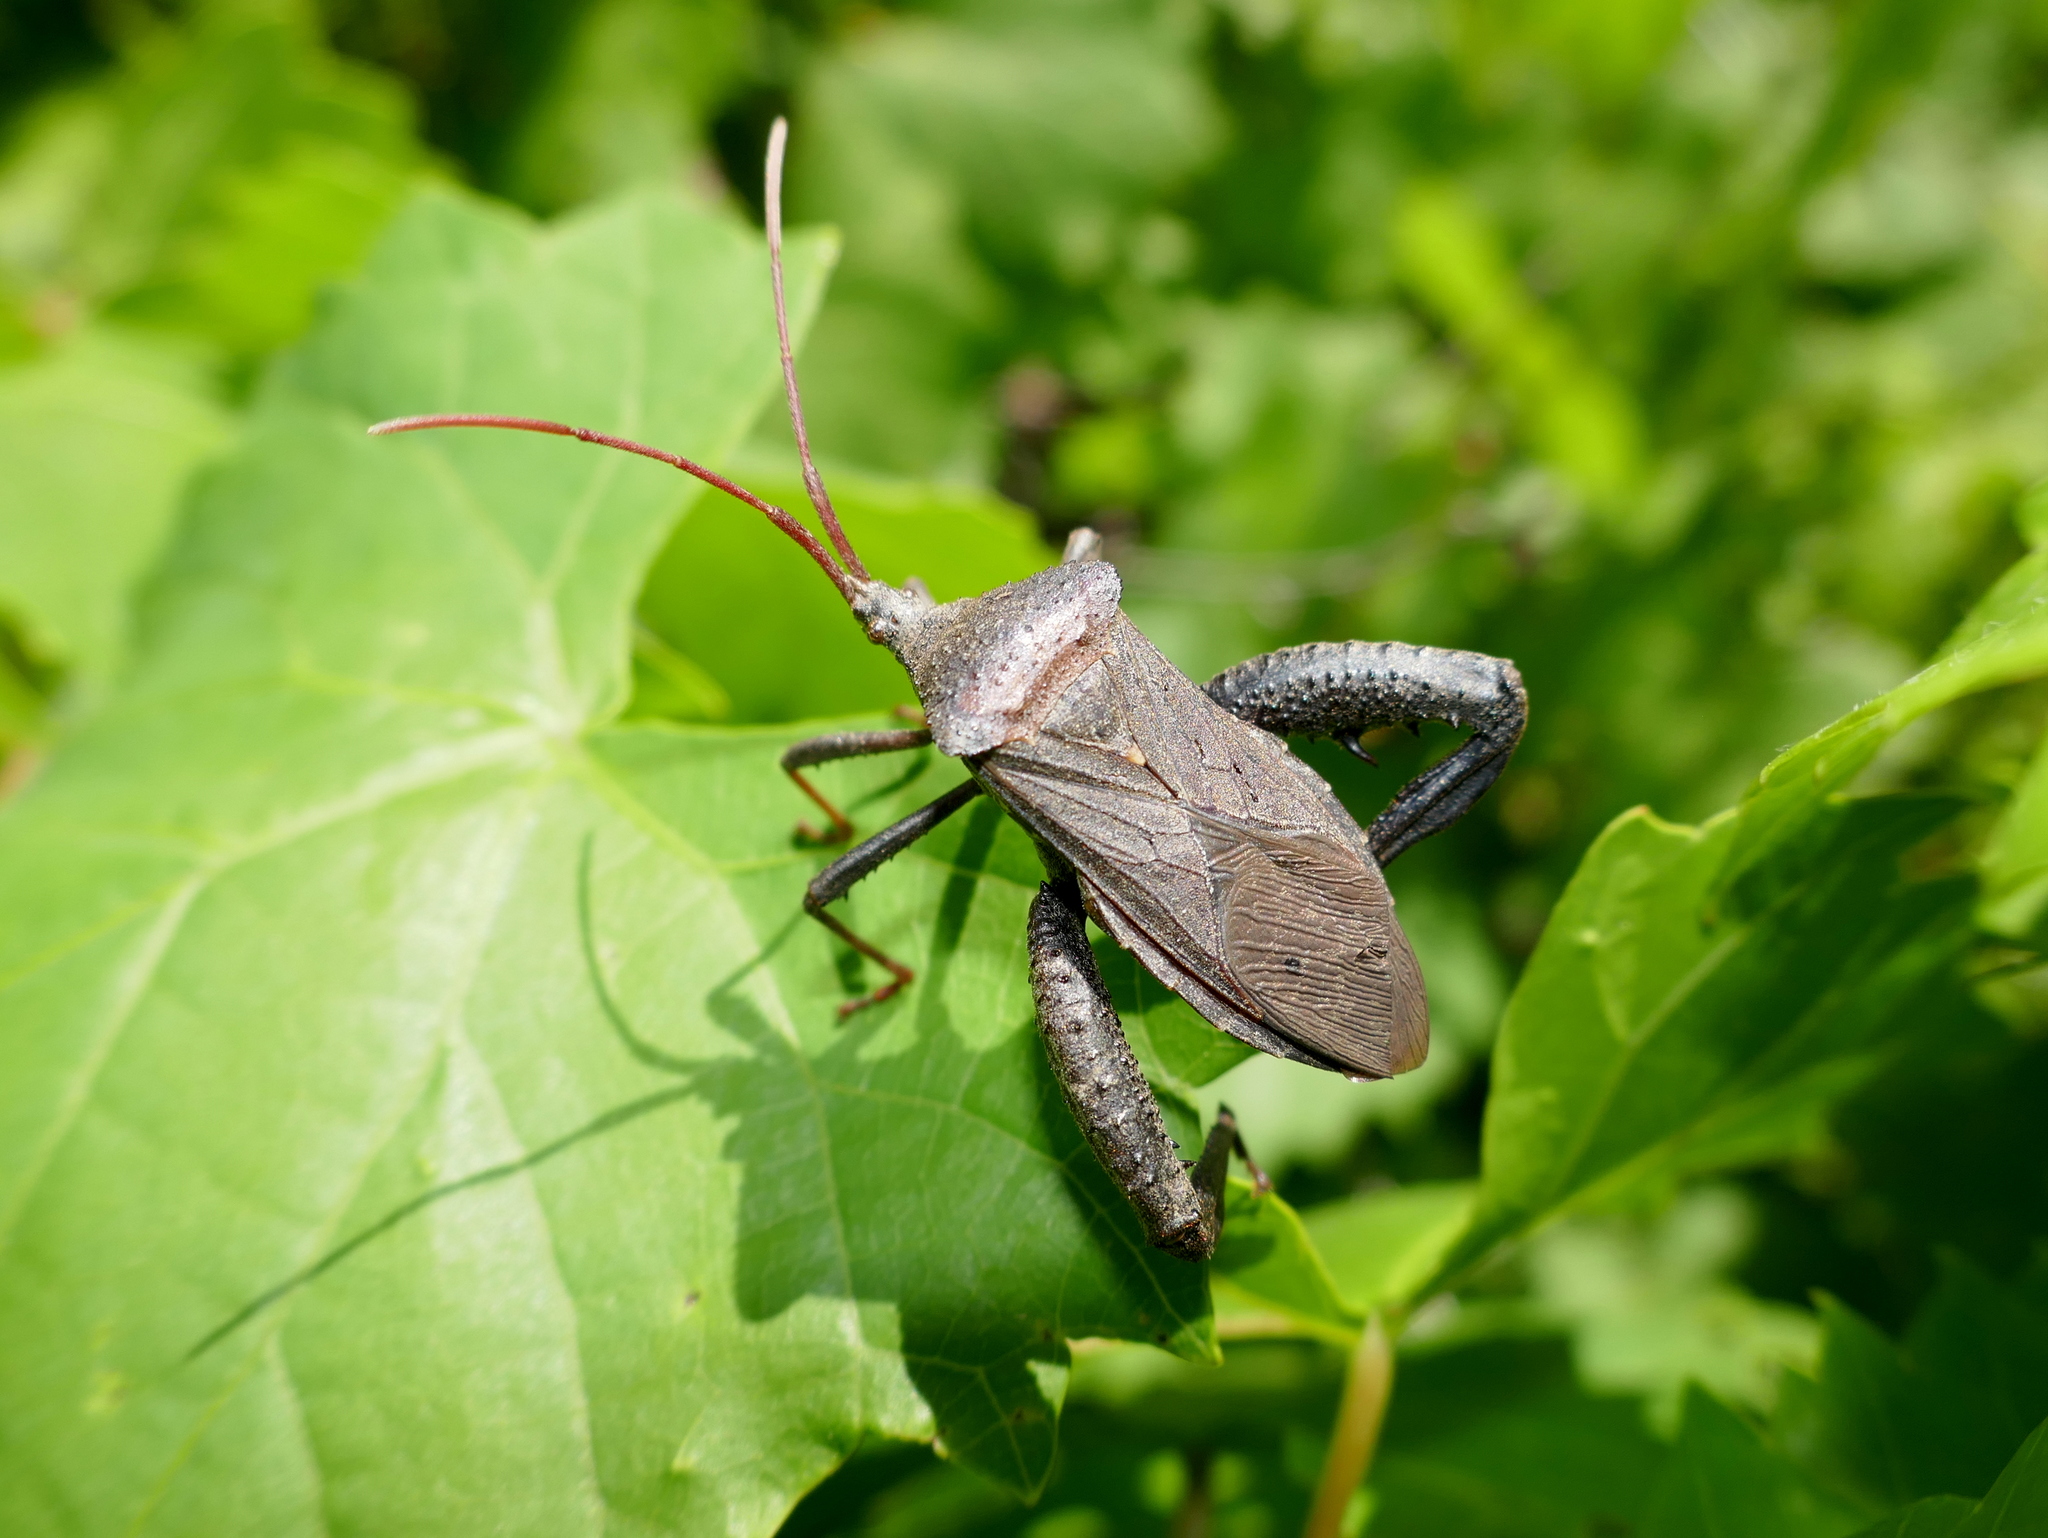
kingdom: Animalia
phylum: Arthropoda
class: Insecta
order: Hemiptera
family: Coreidae
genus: Acanthocephala
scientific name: Acanthocephala femorata
